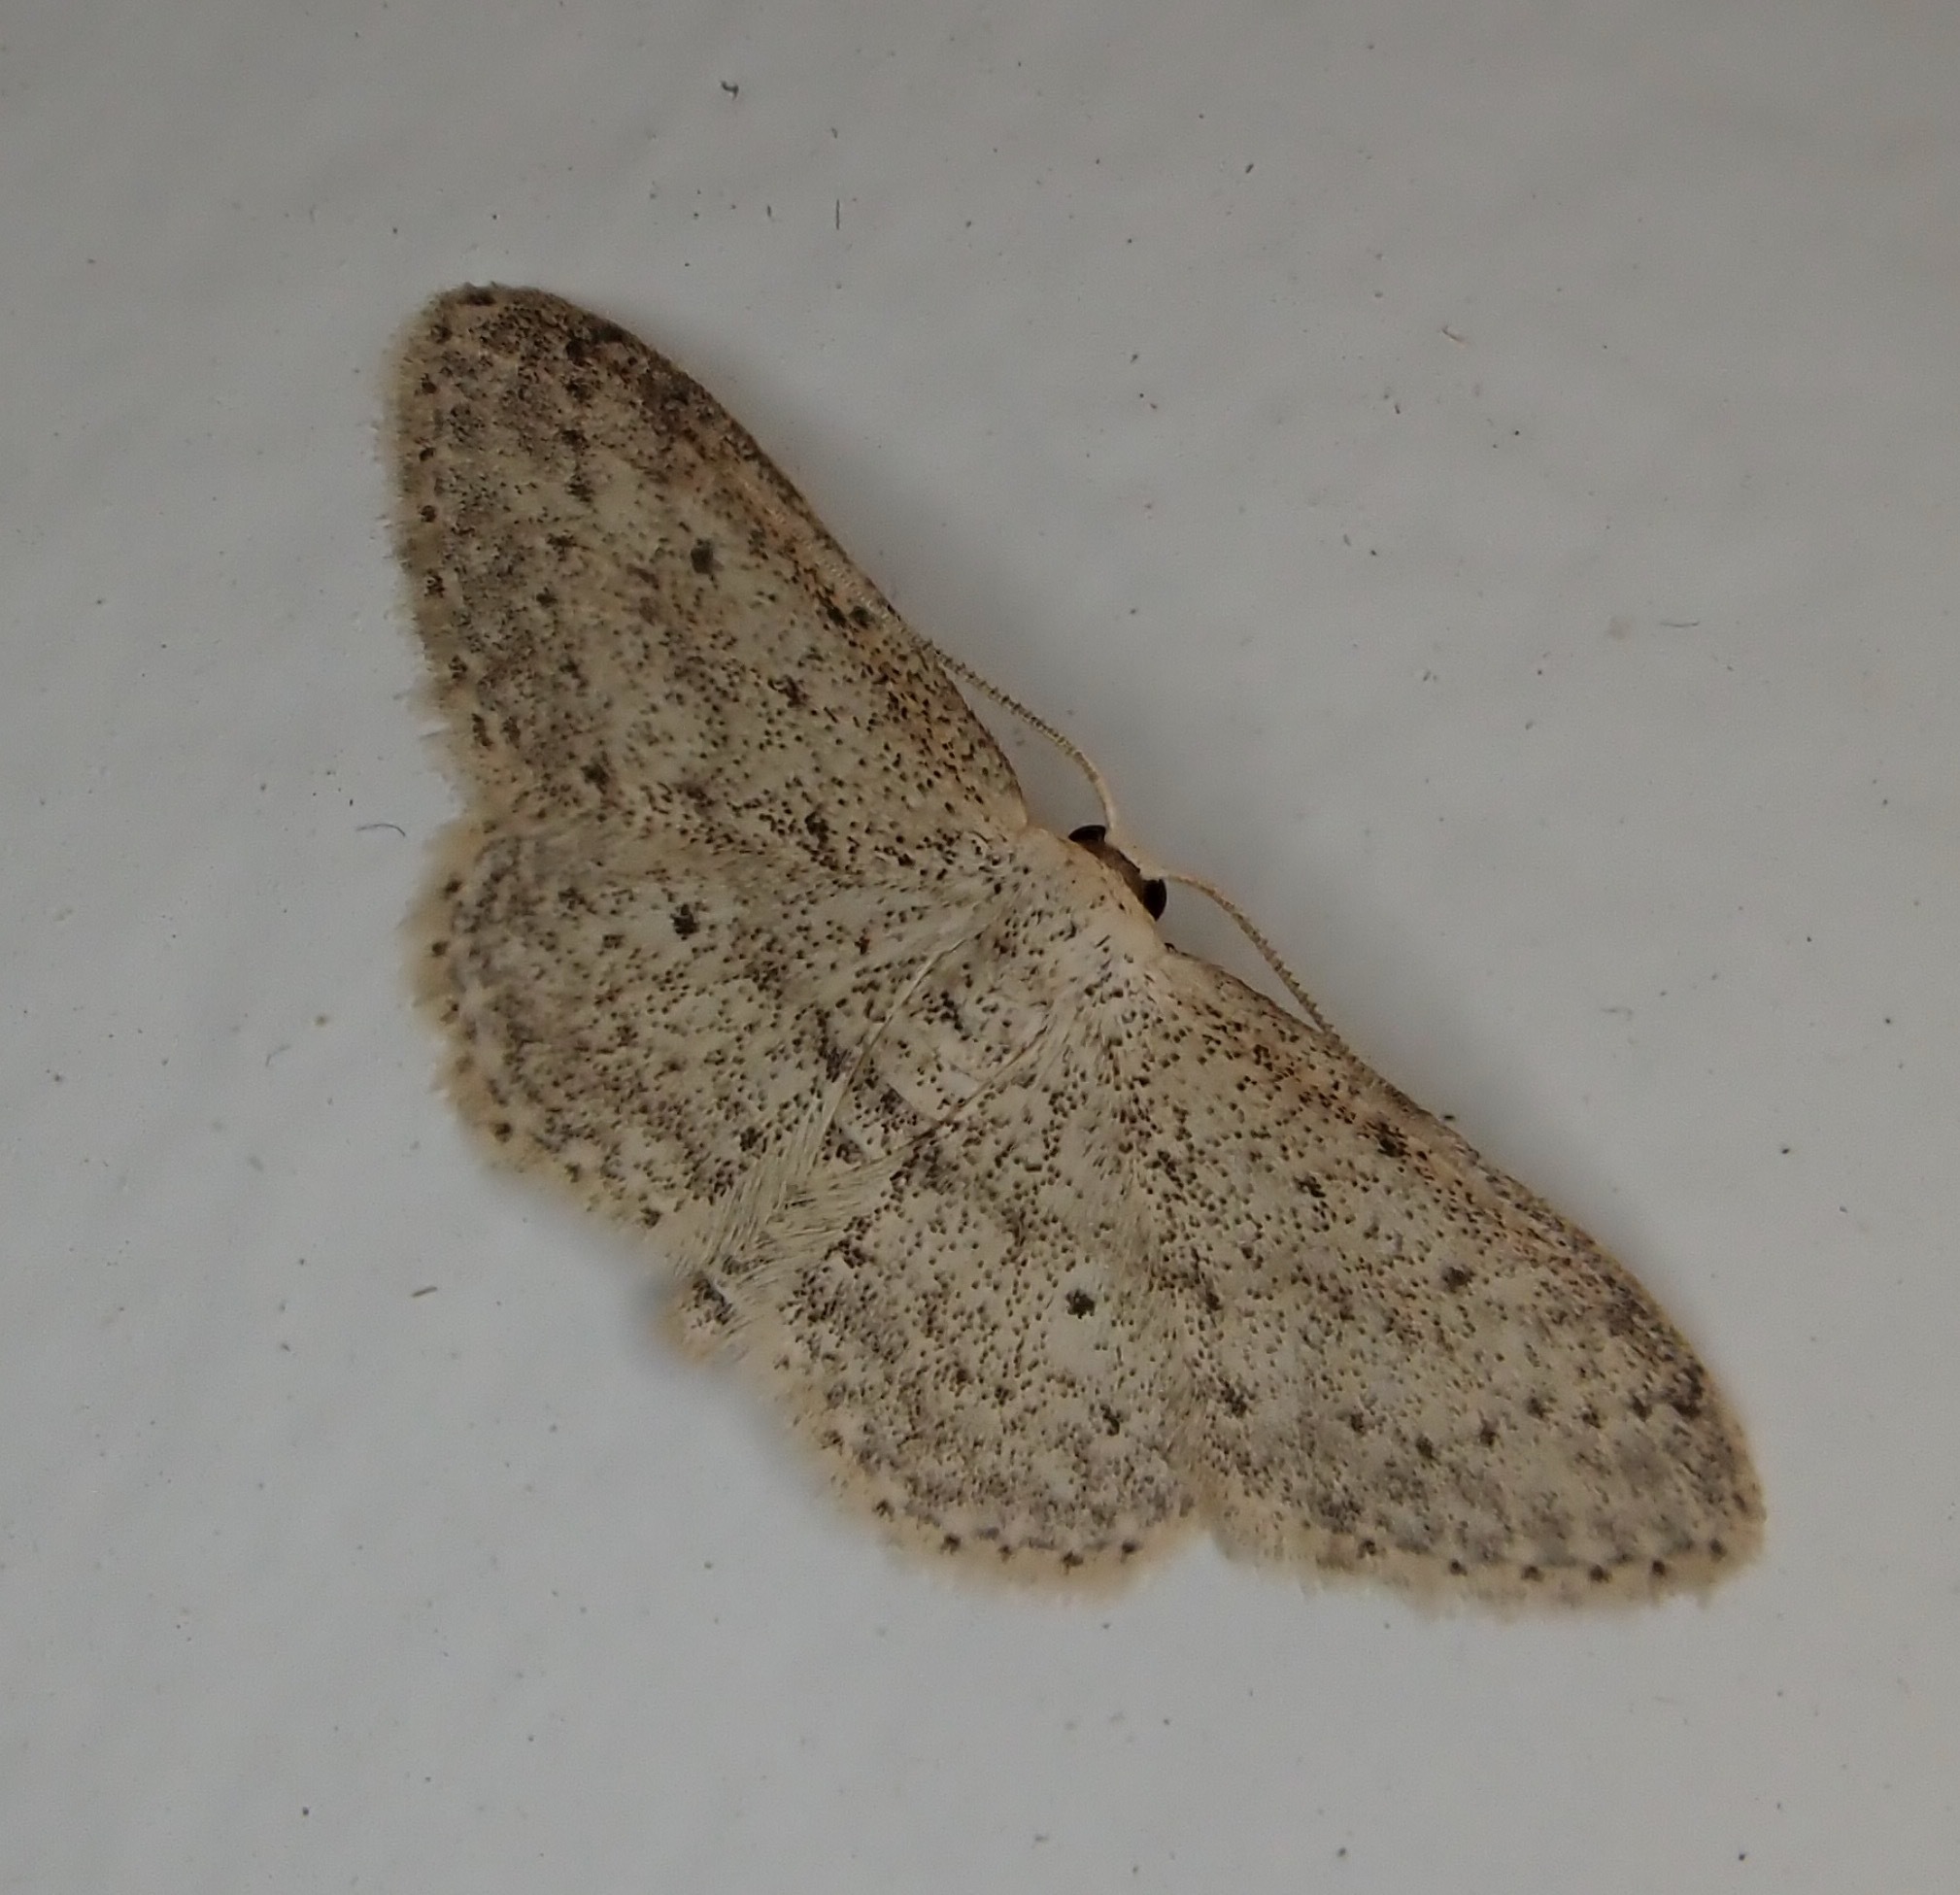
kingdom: Animalia
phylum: Arthropoda
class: Insecta
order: Lepidoptera
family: Geometridae
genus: Idaea
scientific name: Idaea seriata
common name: Small dusty wave
